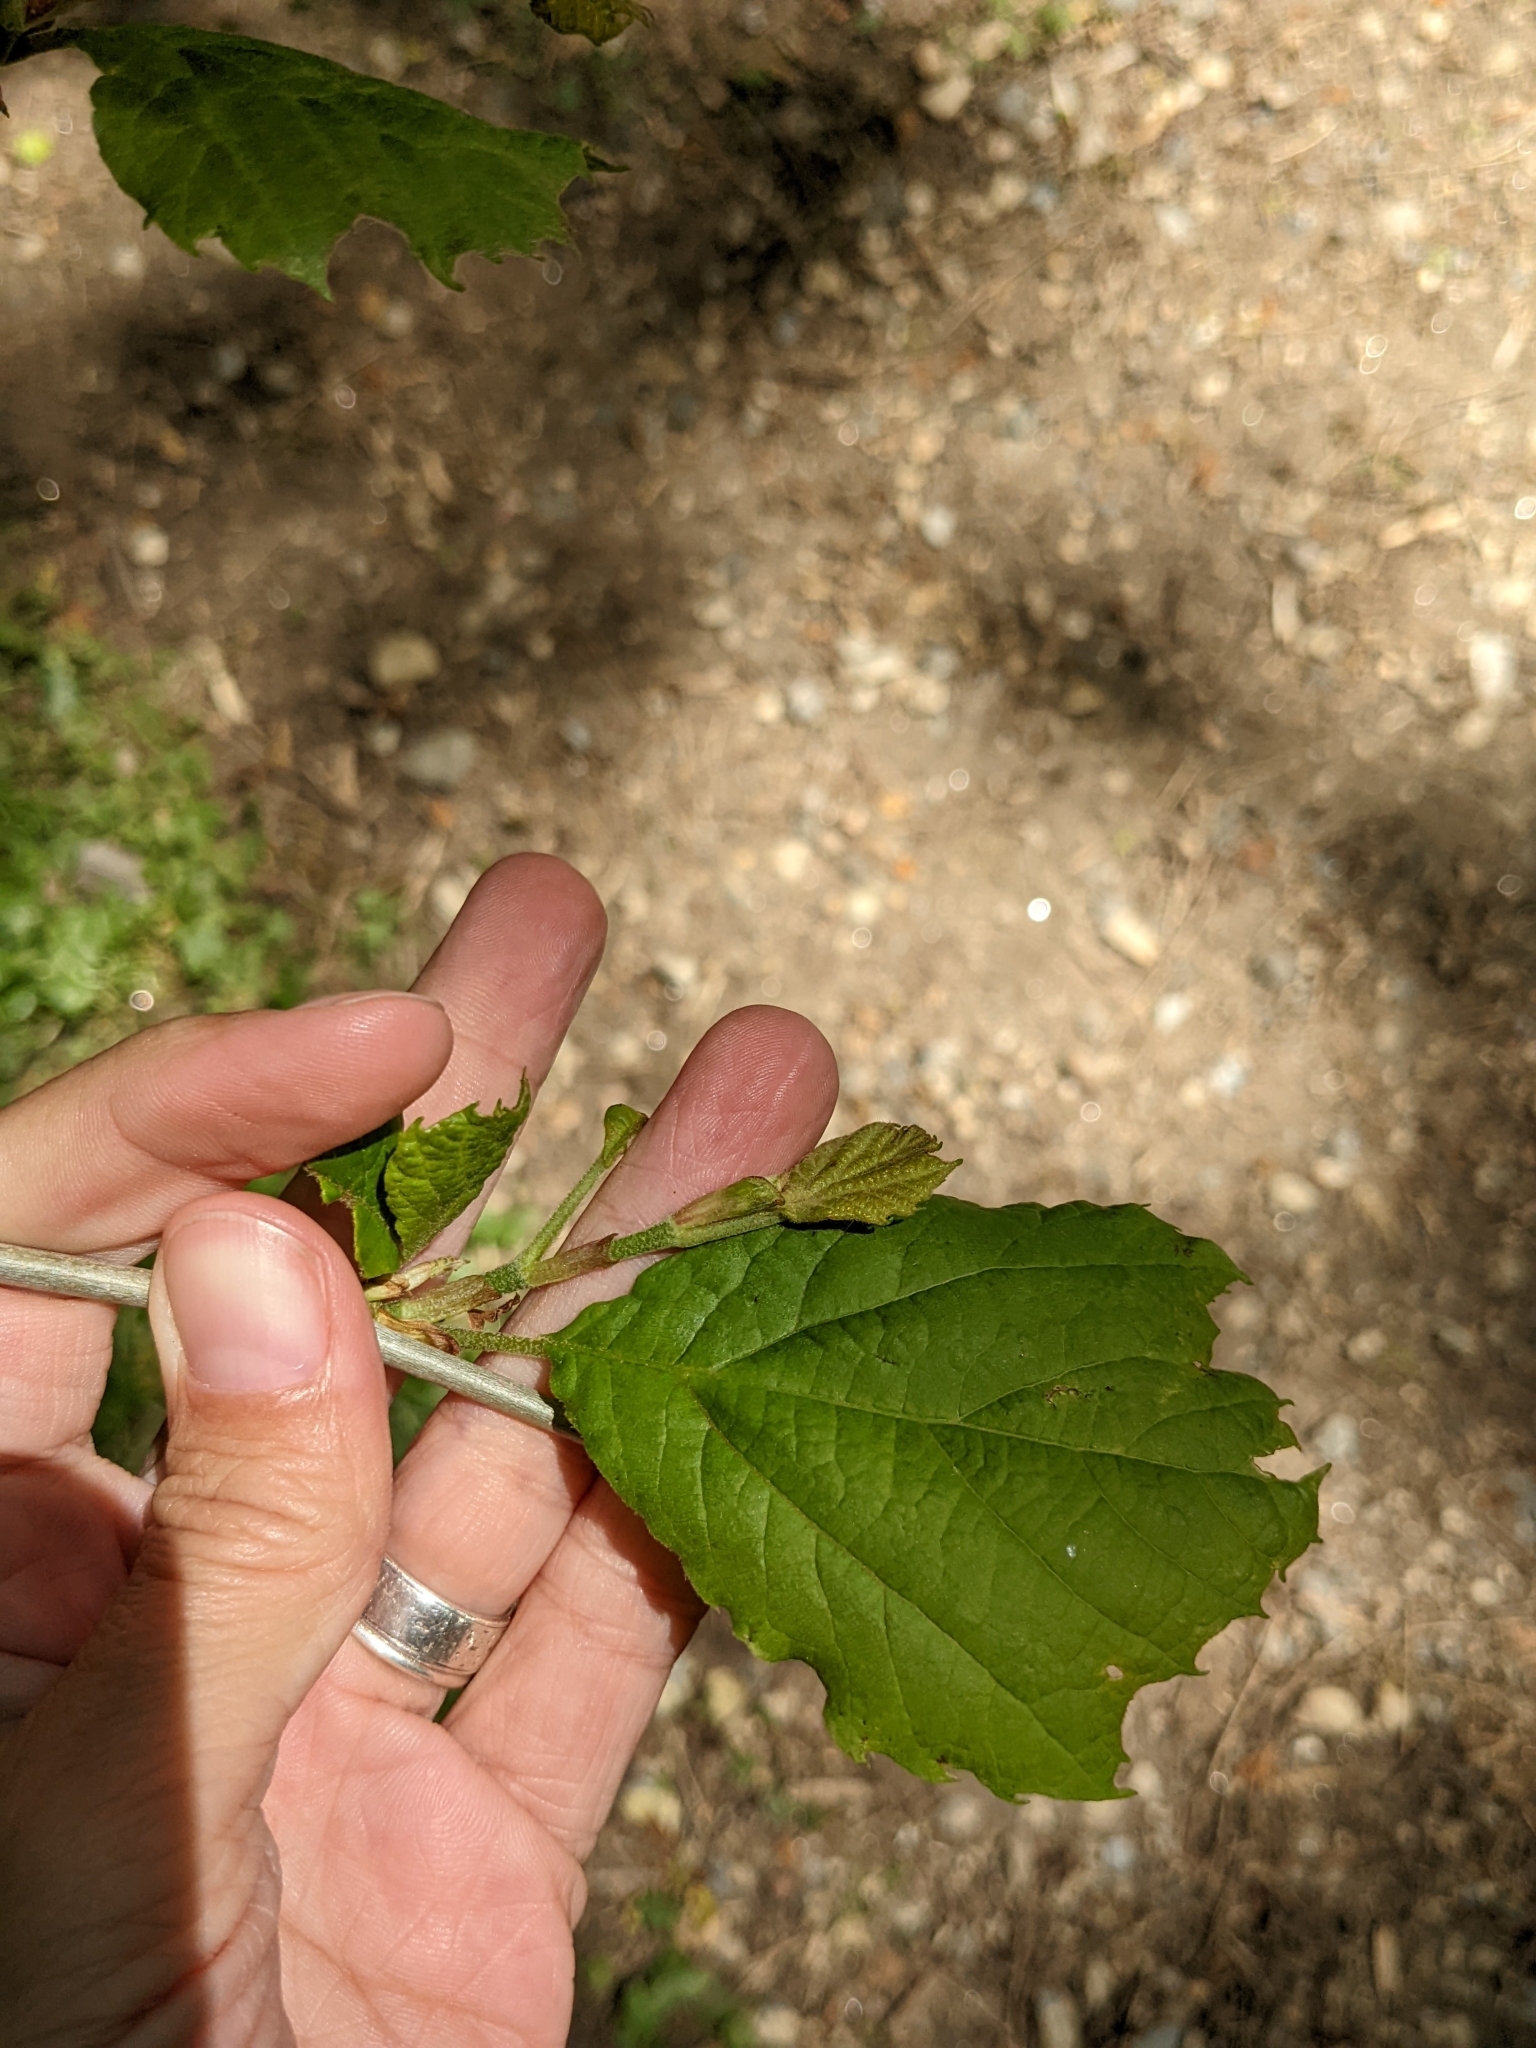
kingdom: Plantae
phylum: Tracheophyta
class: Magnoliopsida
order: Proteales
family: Platanaceae
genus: Platanus
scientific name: Platanus occidentalis
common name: American sycamore
